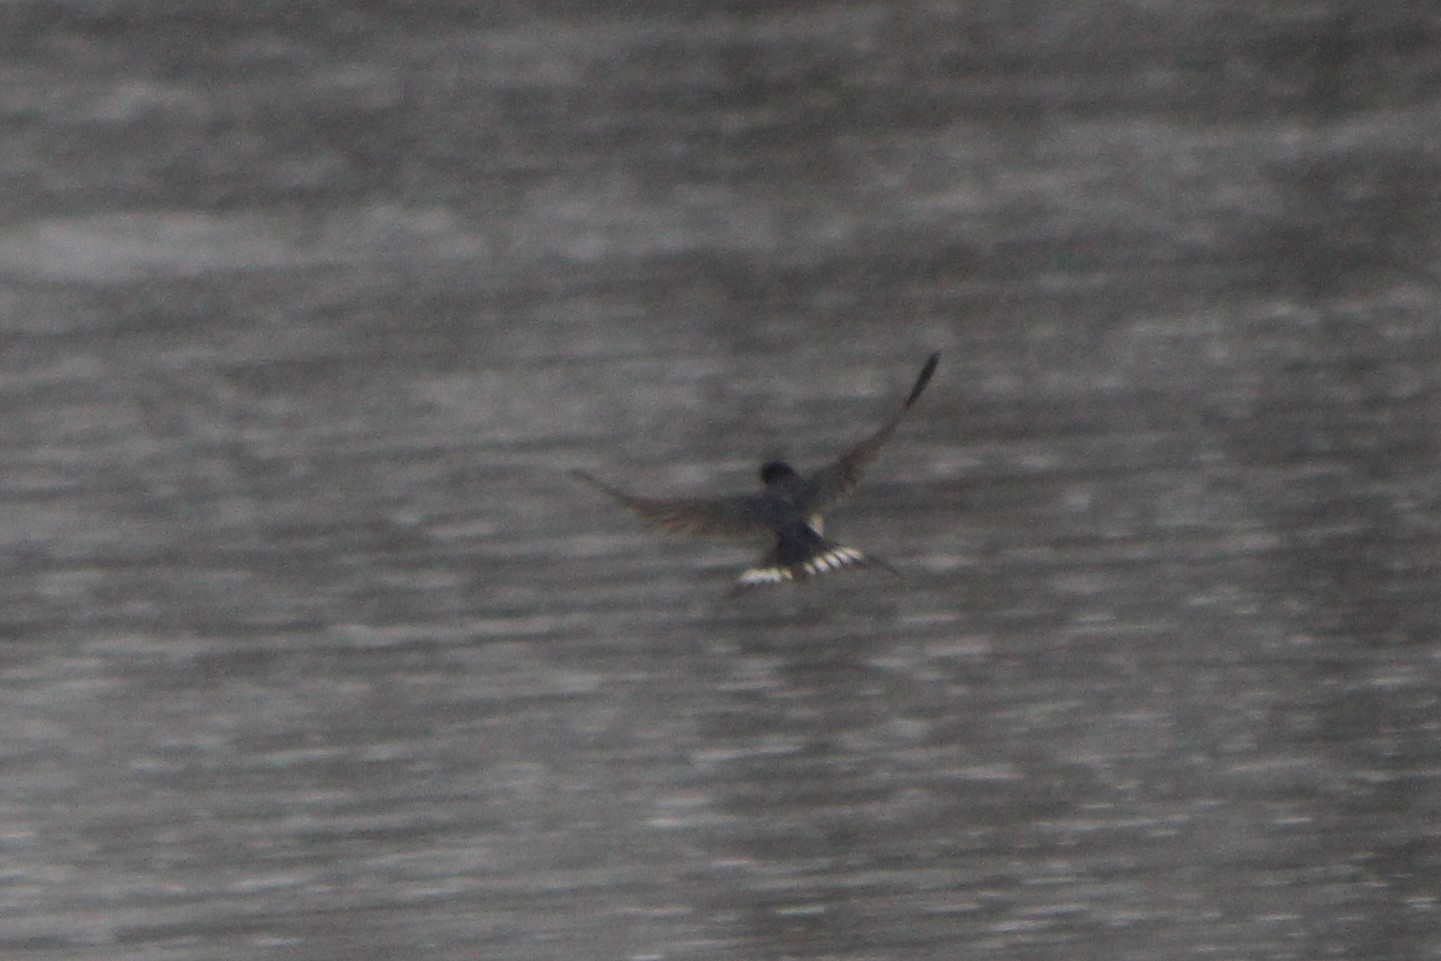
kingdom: Animalia
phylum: Chordata
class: Aves
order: Passeriformes
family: Hirundinidae
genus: Hirundo
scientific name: Hirundo rustica
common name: Barn swallow
